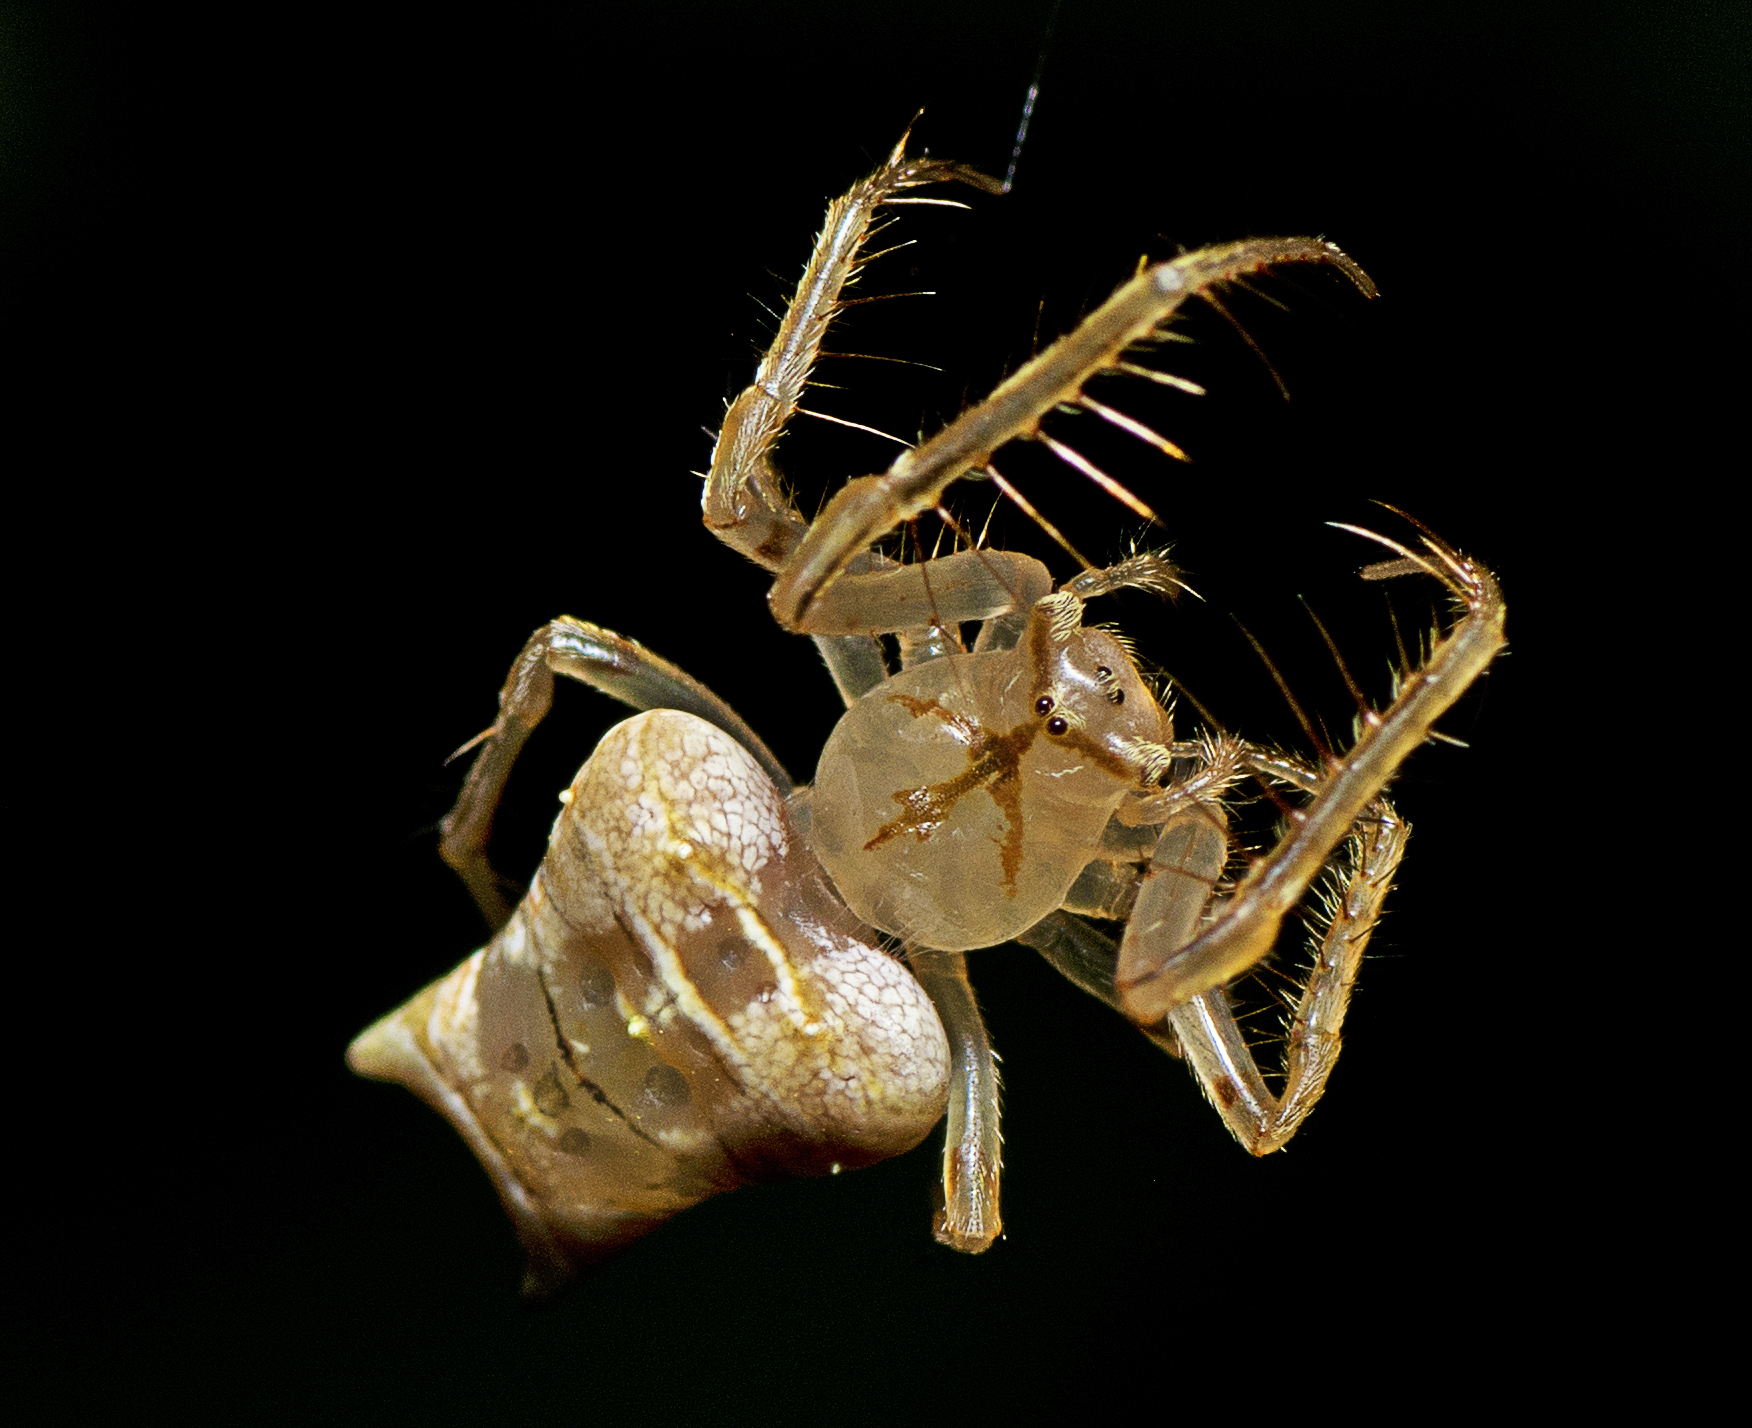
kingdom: Animalia
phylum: Arthropoda
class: Arachnida
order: Araneae
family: Arkyidae
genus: Arkys
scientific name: Arkys furcatus
